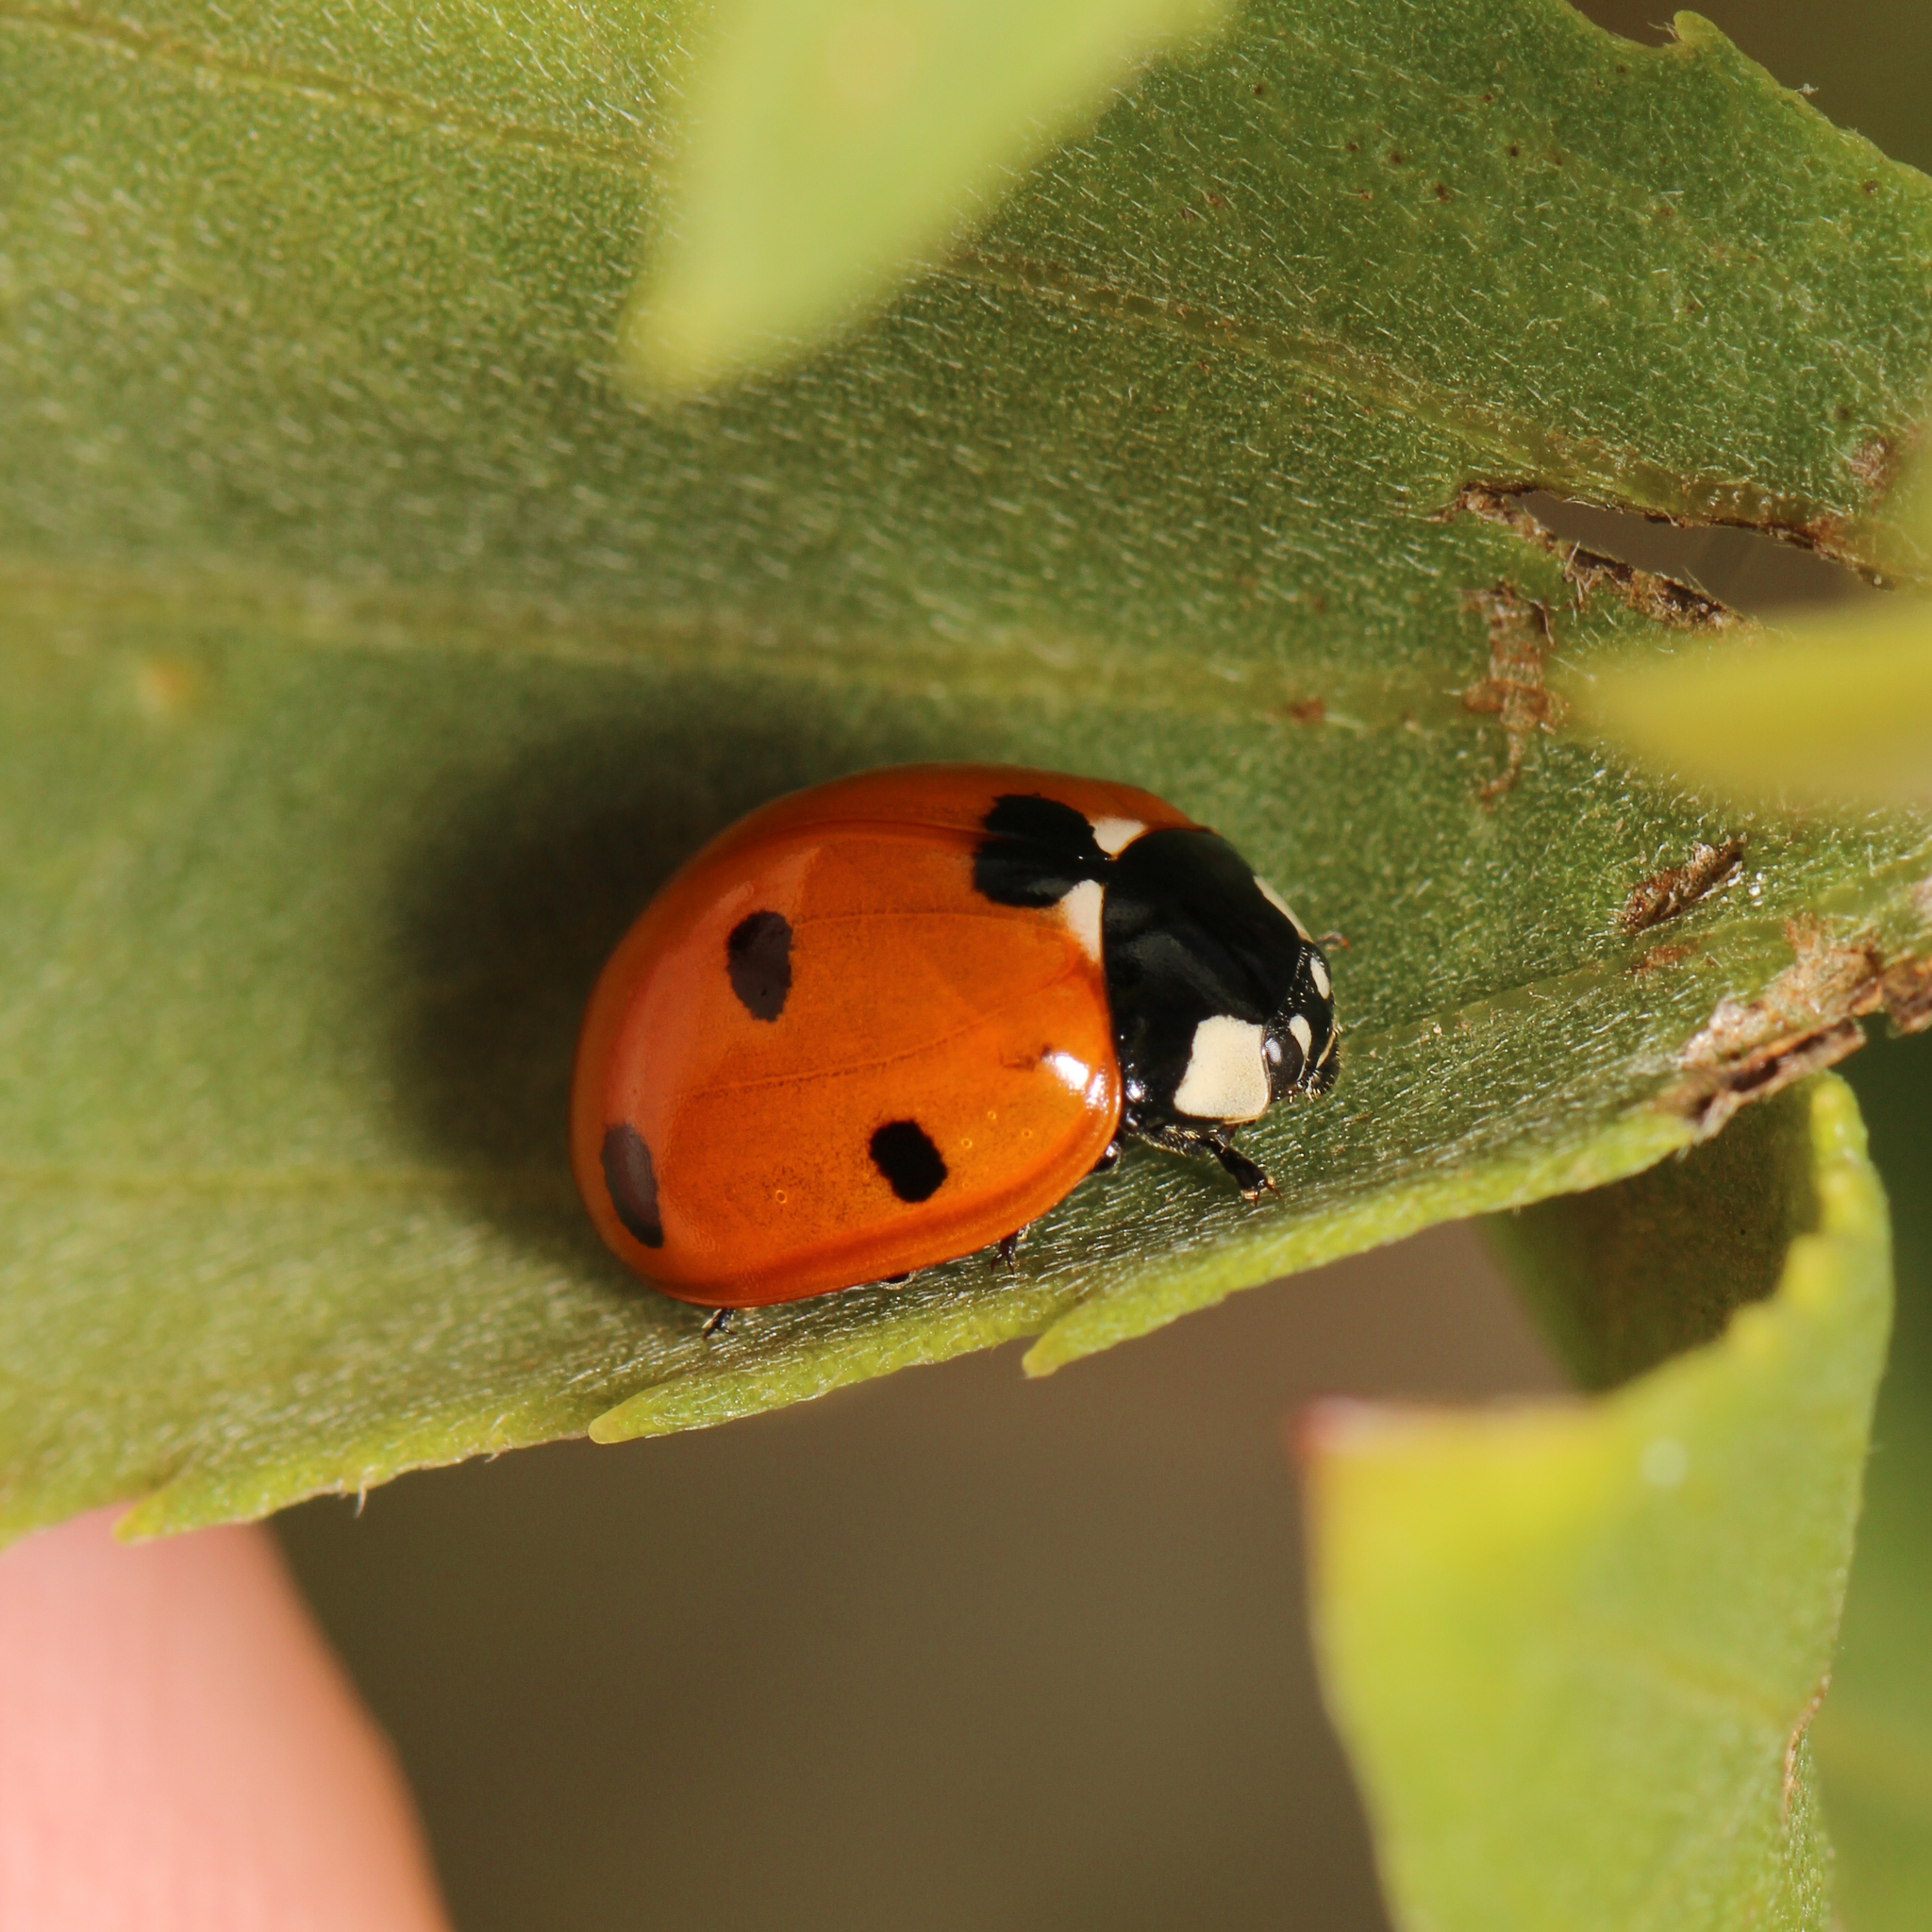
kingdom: Animalia
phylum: Arthropoda
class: Insecta
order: Coleoptera
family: Coccinellidae
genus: Coccinella
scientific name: Coccinella septempunctata
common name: Sevenspotted lady beetle
